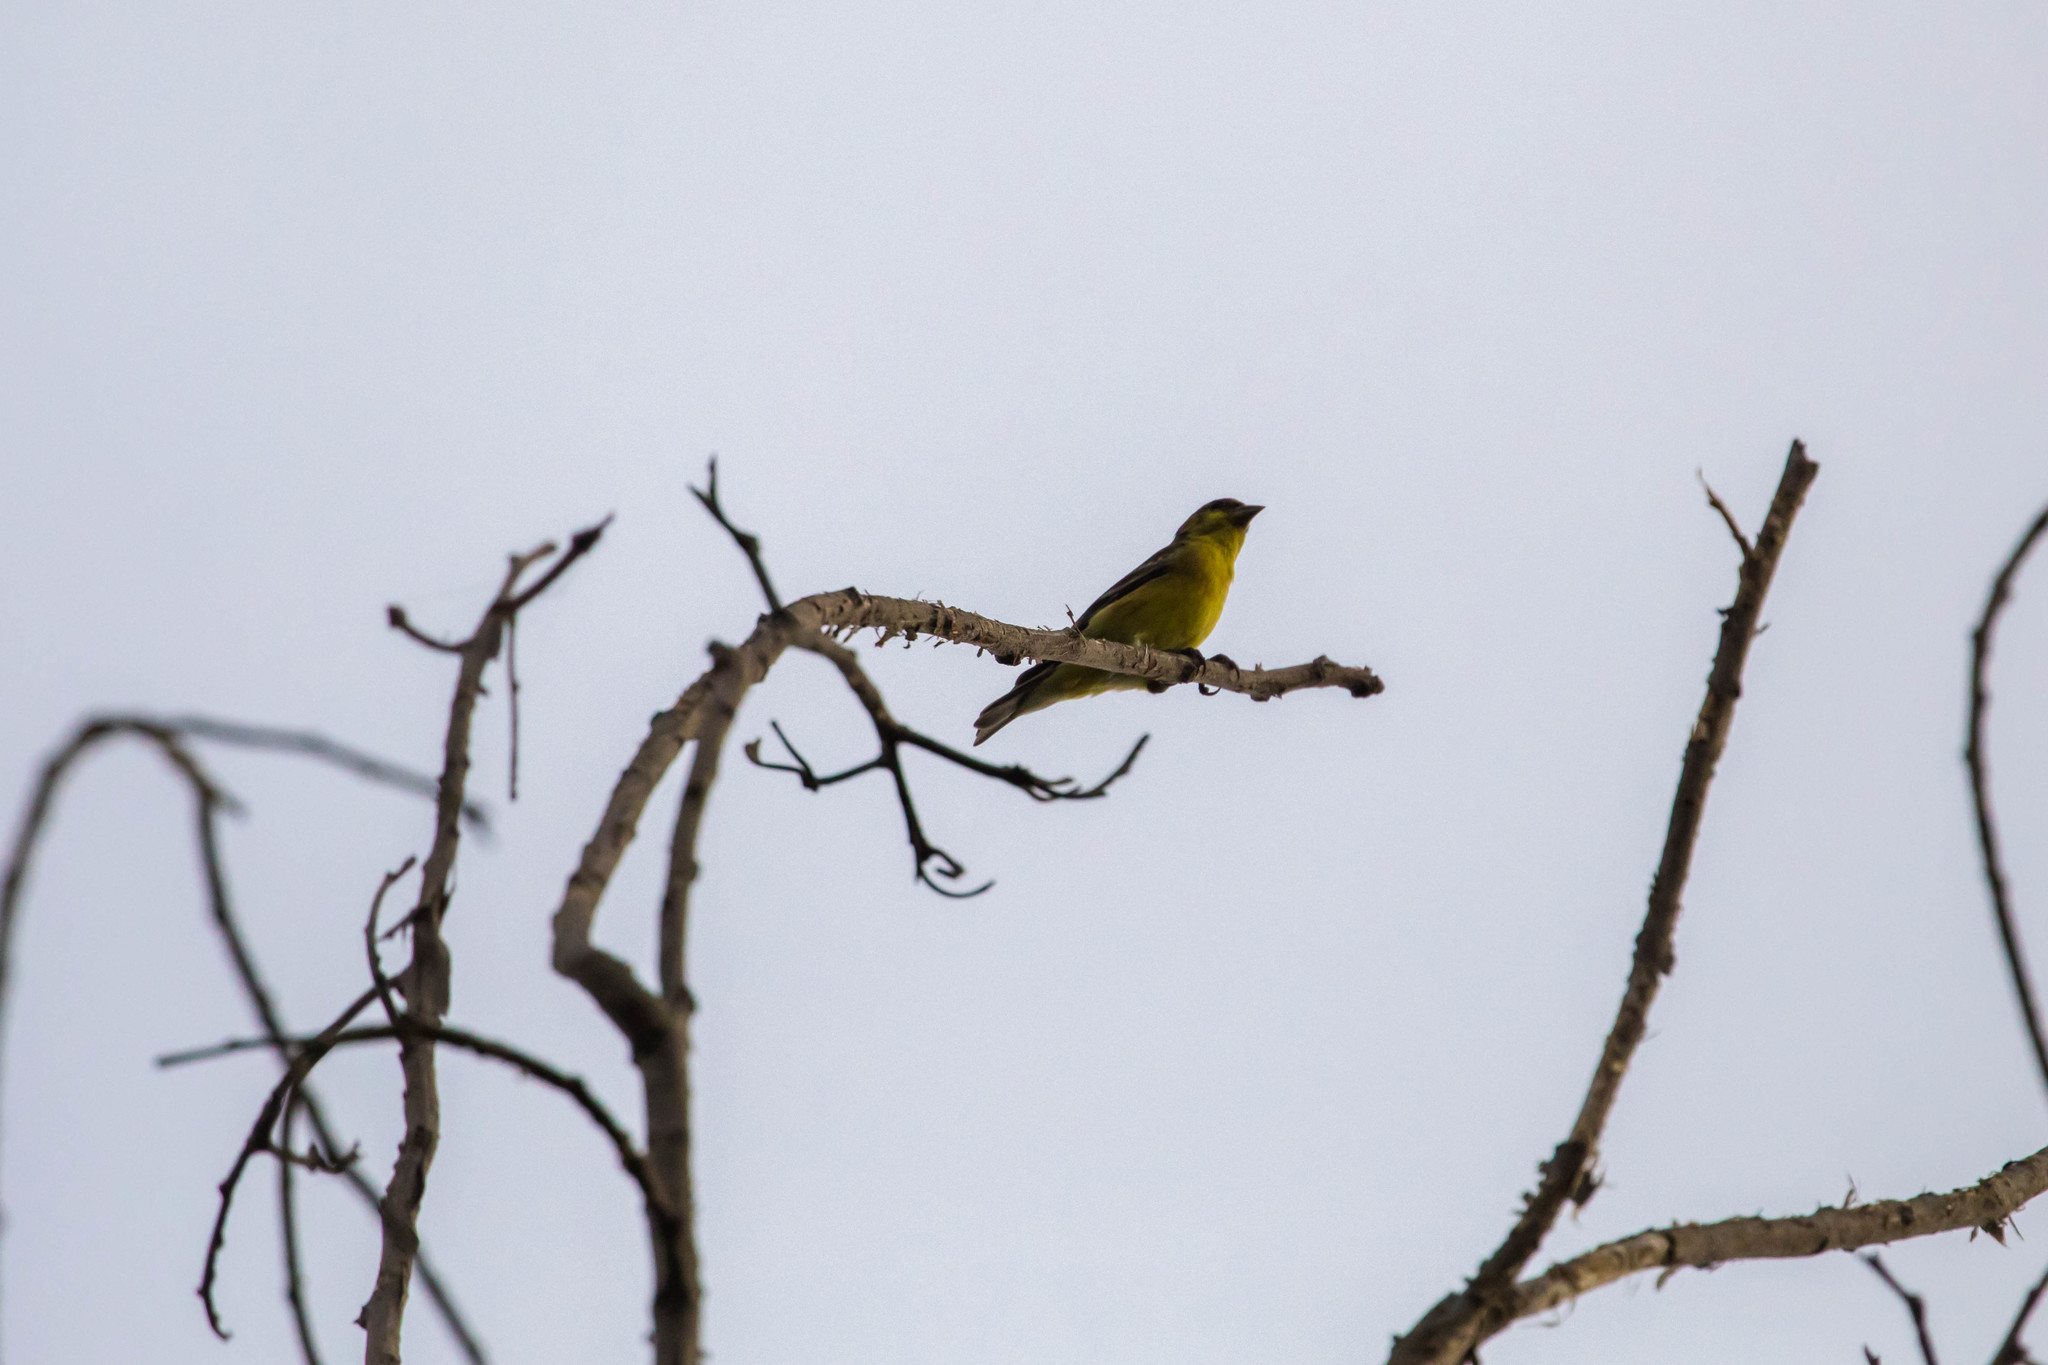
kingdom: Animalia
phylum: Chordata
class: Aves
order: Passeriformes
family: Fringillidae
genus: Spinus
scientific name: Spinus psaltria
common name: Lesser goldfinch
